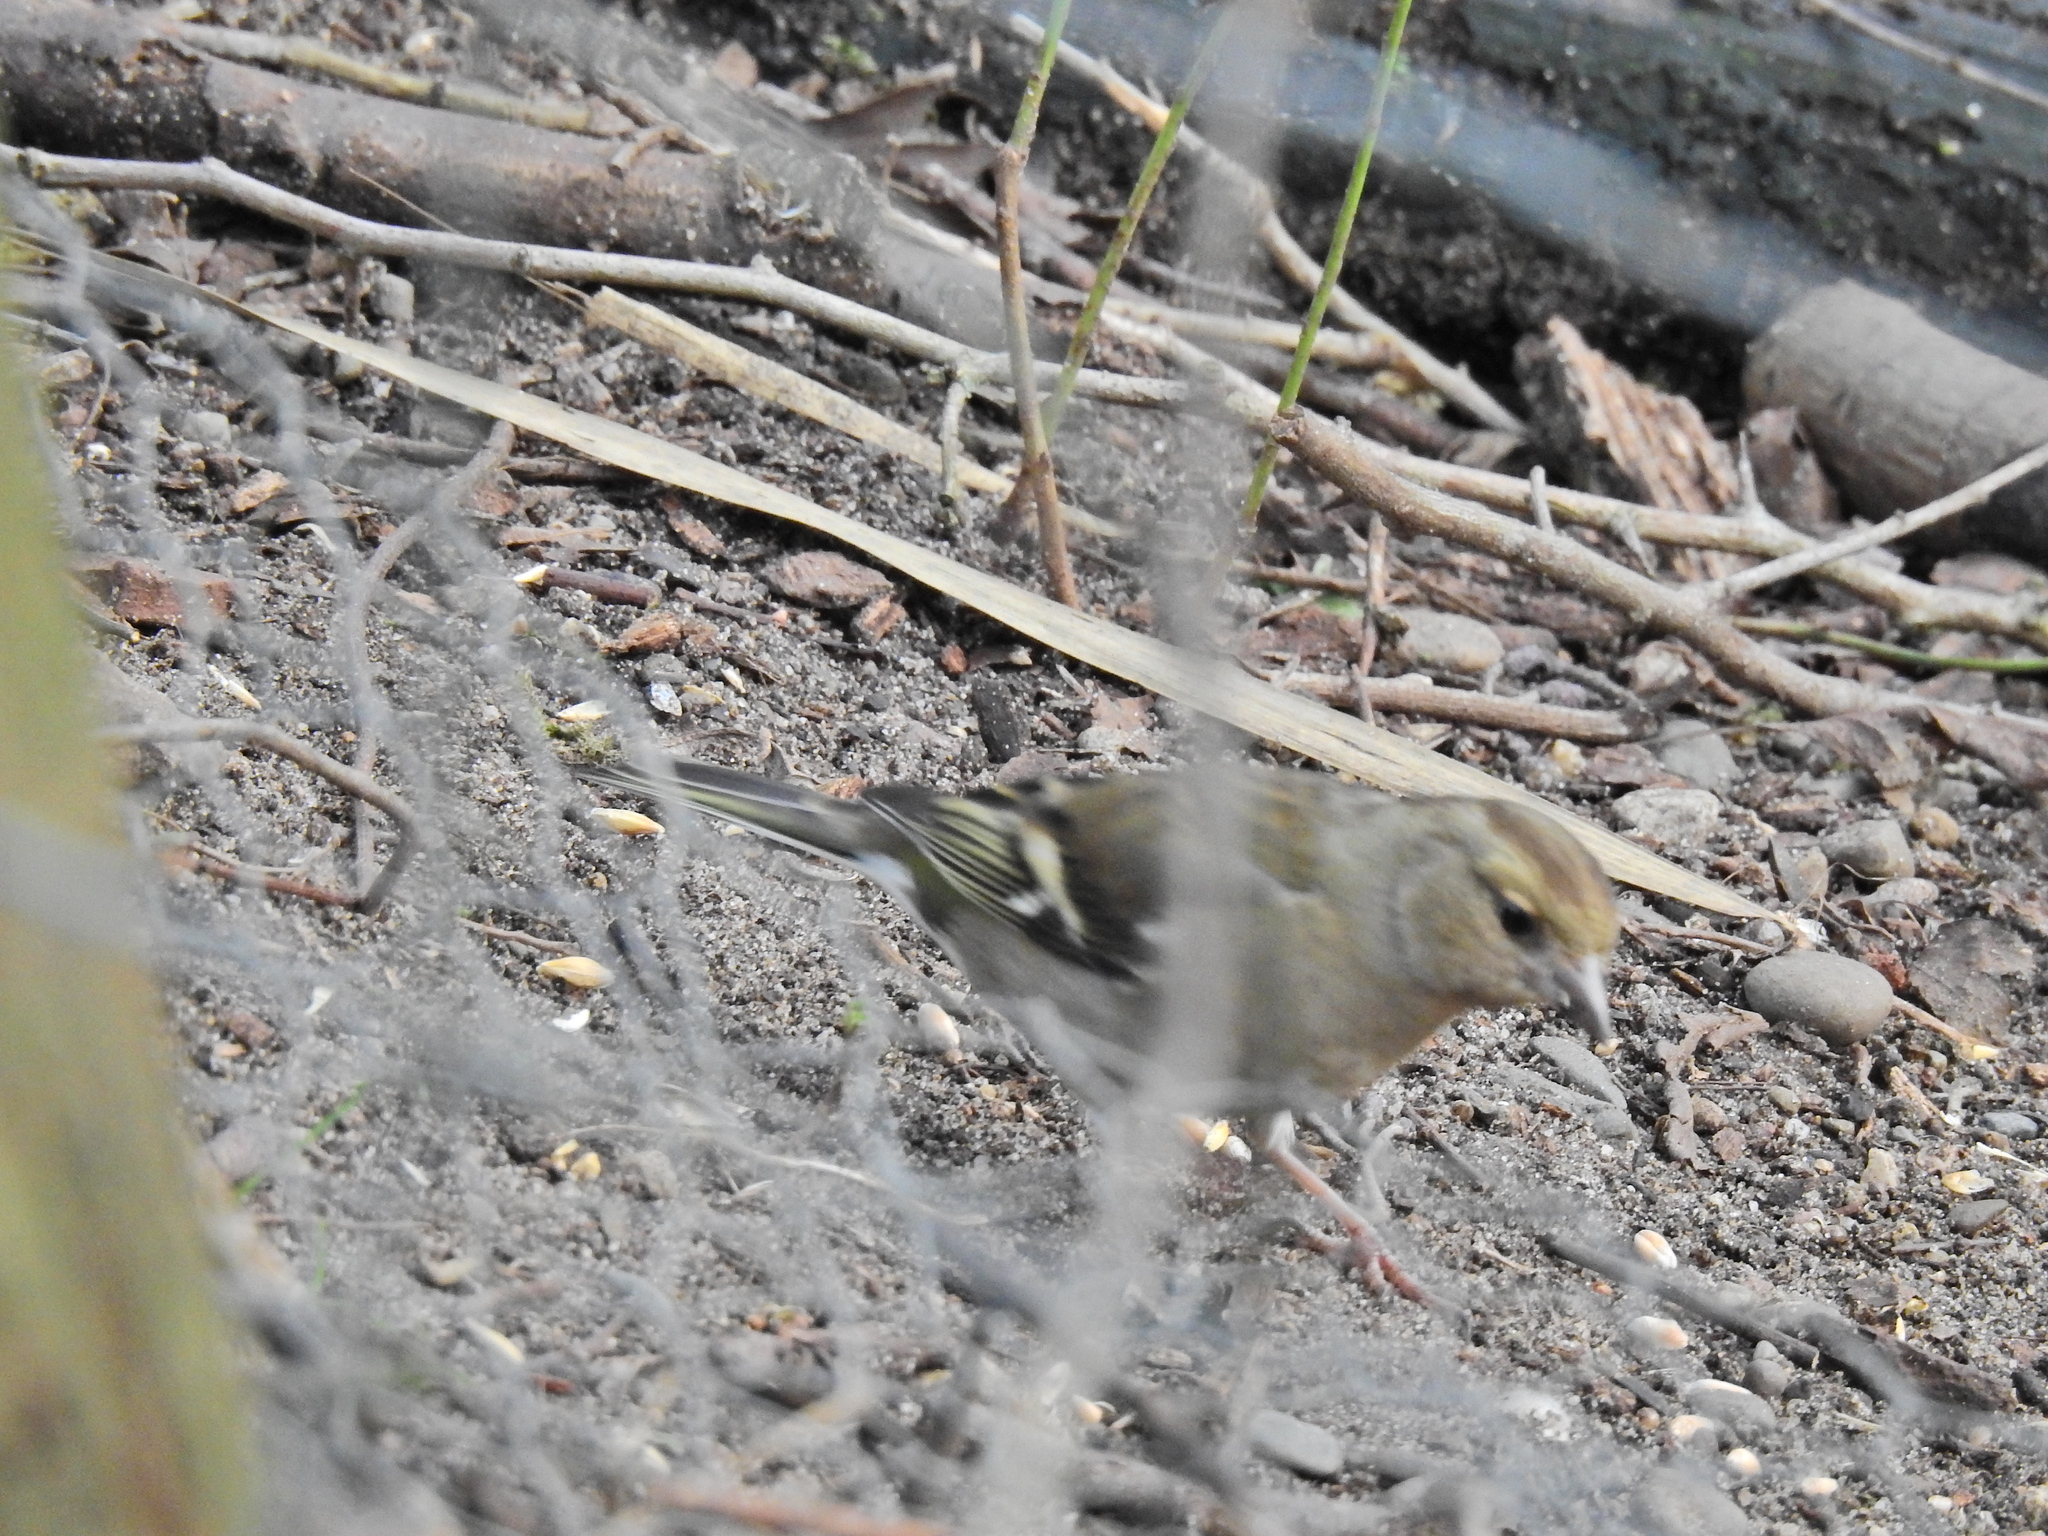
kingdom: Animalia
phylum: Chordata
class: Aves
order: Passeriformes
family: Fringillidae
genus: Fringilla
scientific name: Fringilla coelebs
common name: Common chaffinch
